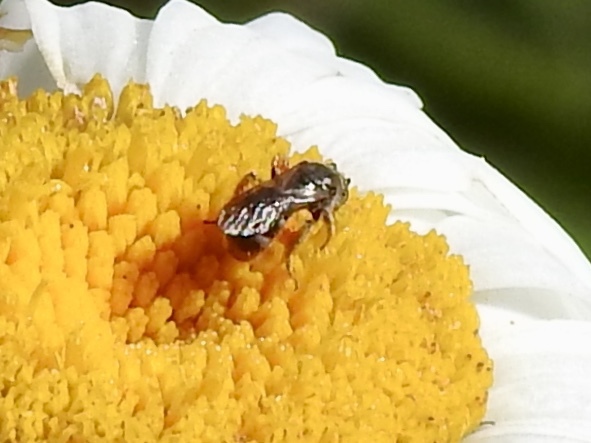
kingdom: Animalia
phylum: Arthropoda
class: Insecta
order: Hymenoptera
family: Halictidae
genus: Dialictus
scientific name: Dialictus
